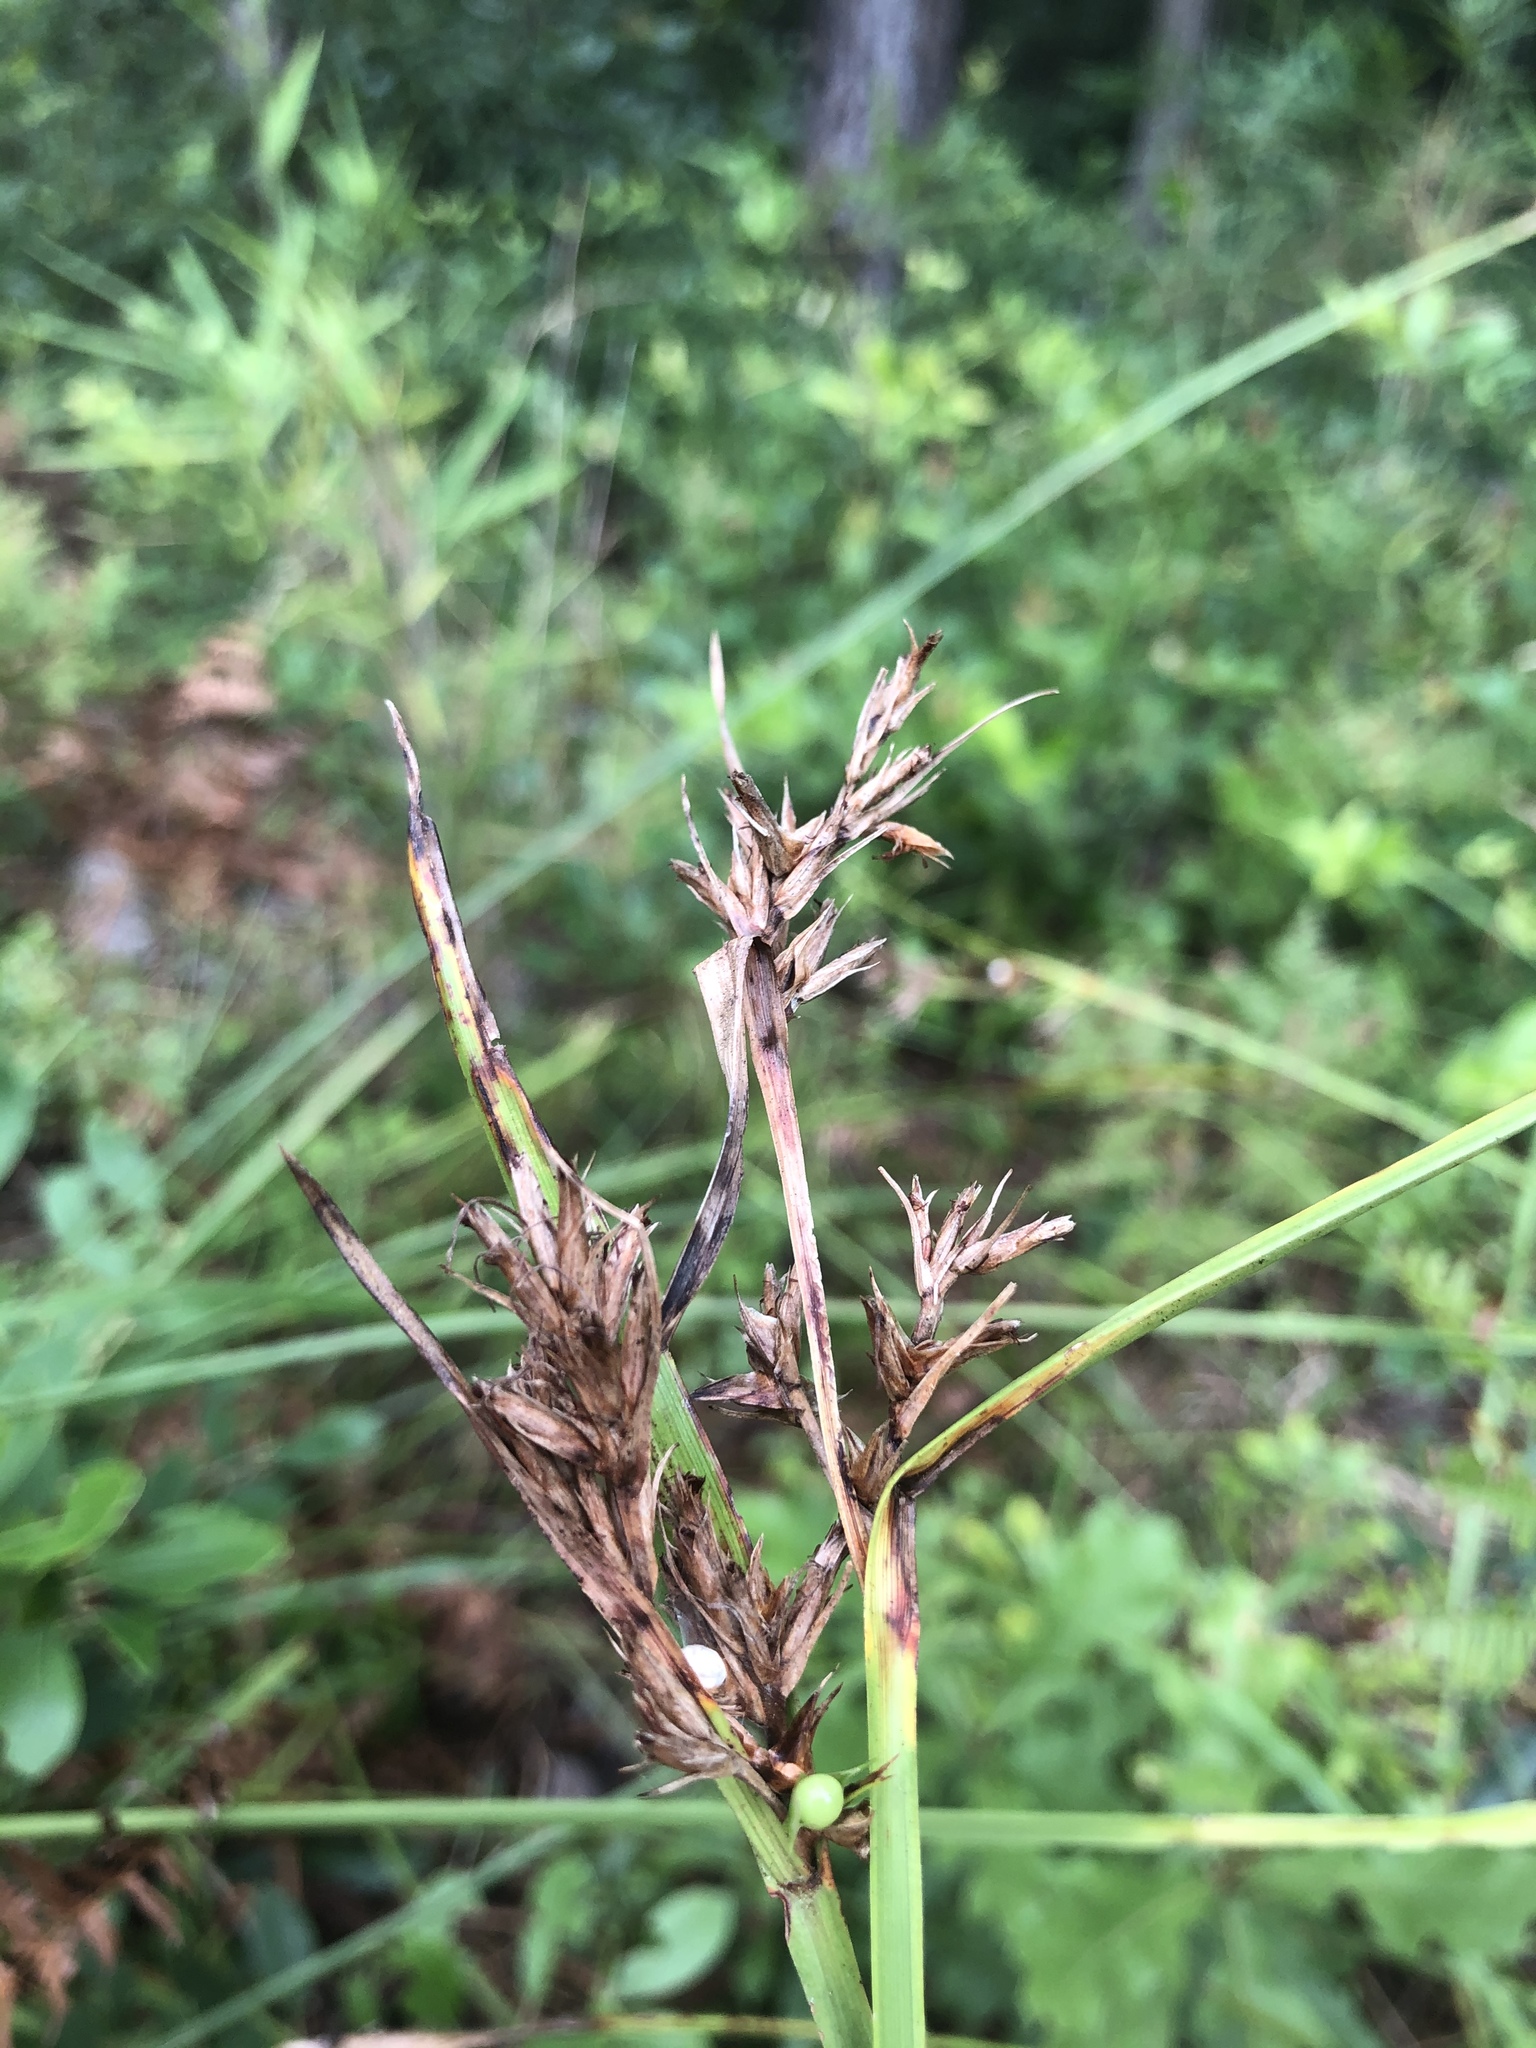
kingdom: Plantae
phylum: Tracheophyta
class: Liliopsida
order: Poales
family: Cyperaceae
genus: Scleria
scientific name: Scleria triglomerata
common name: Whip nutrush
